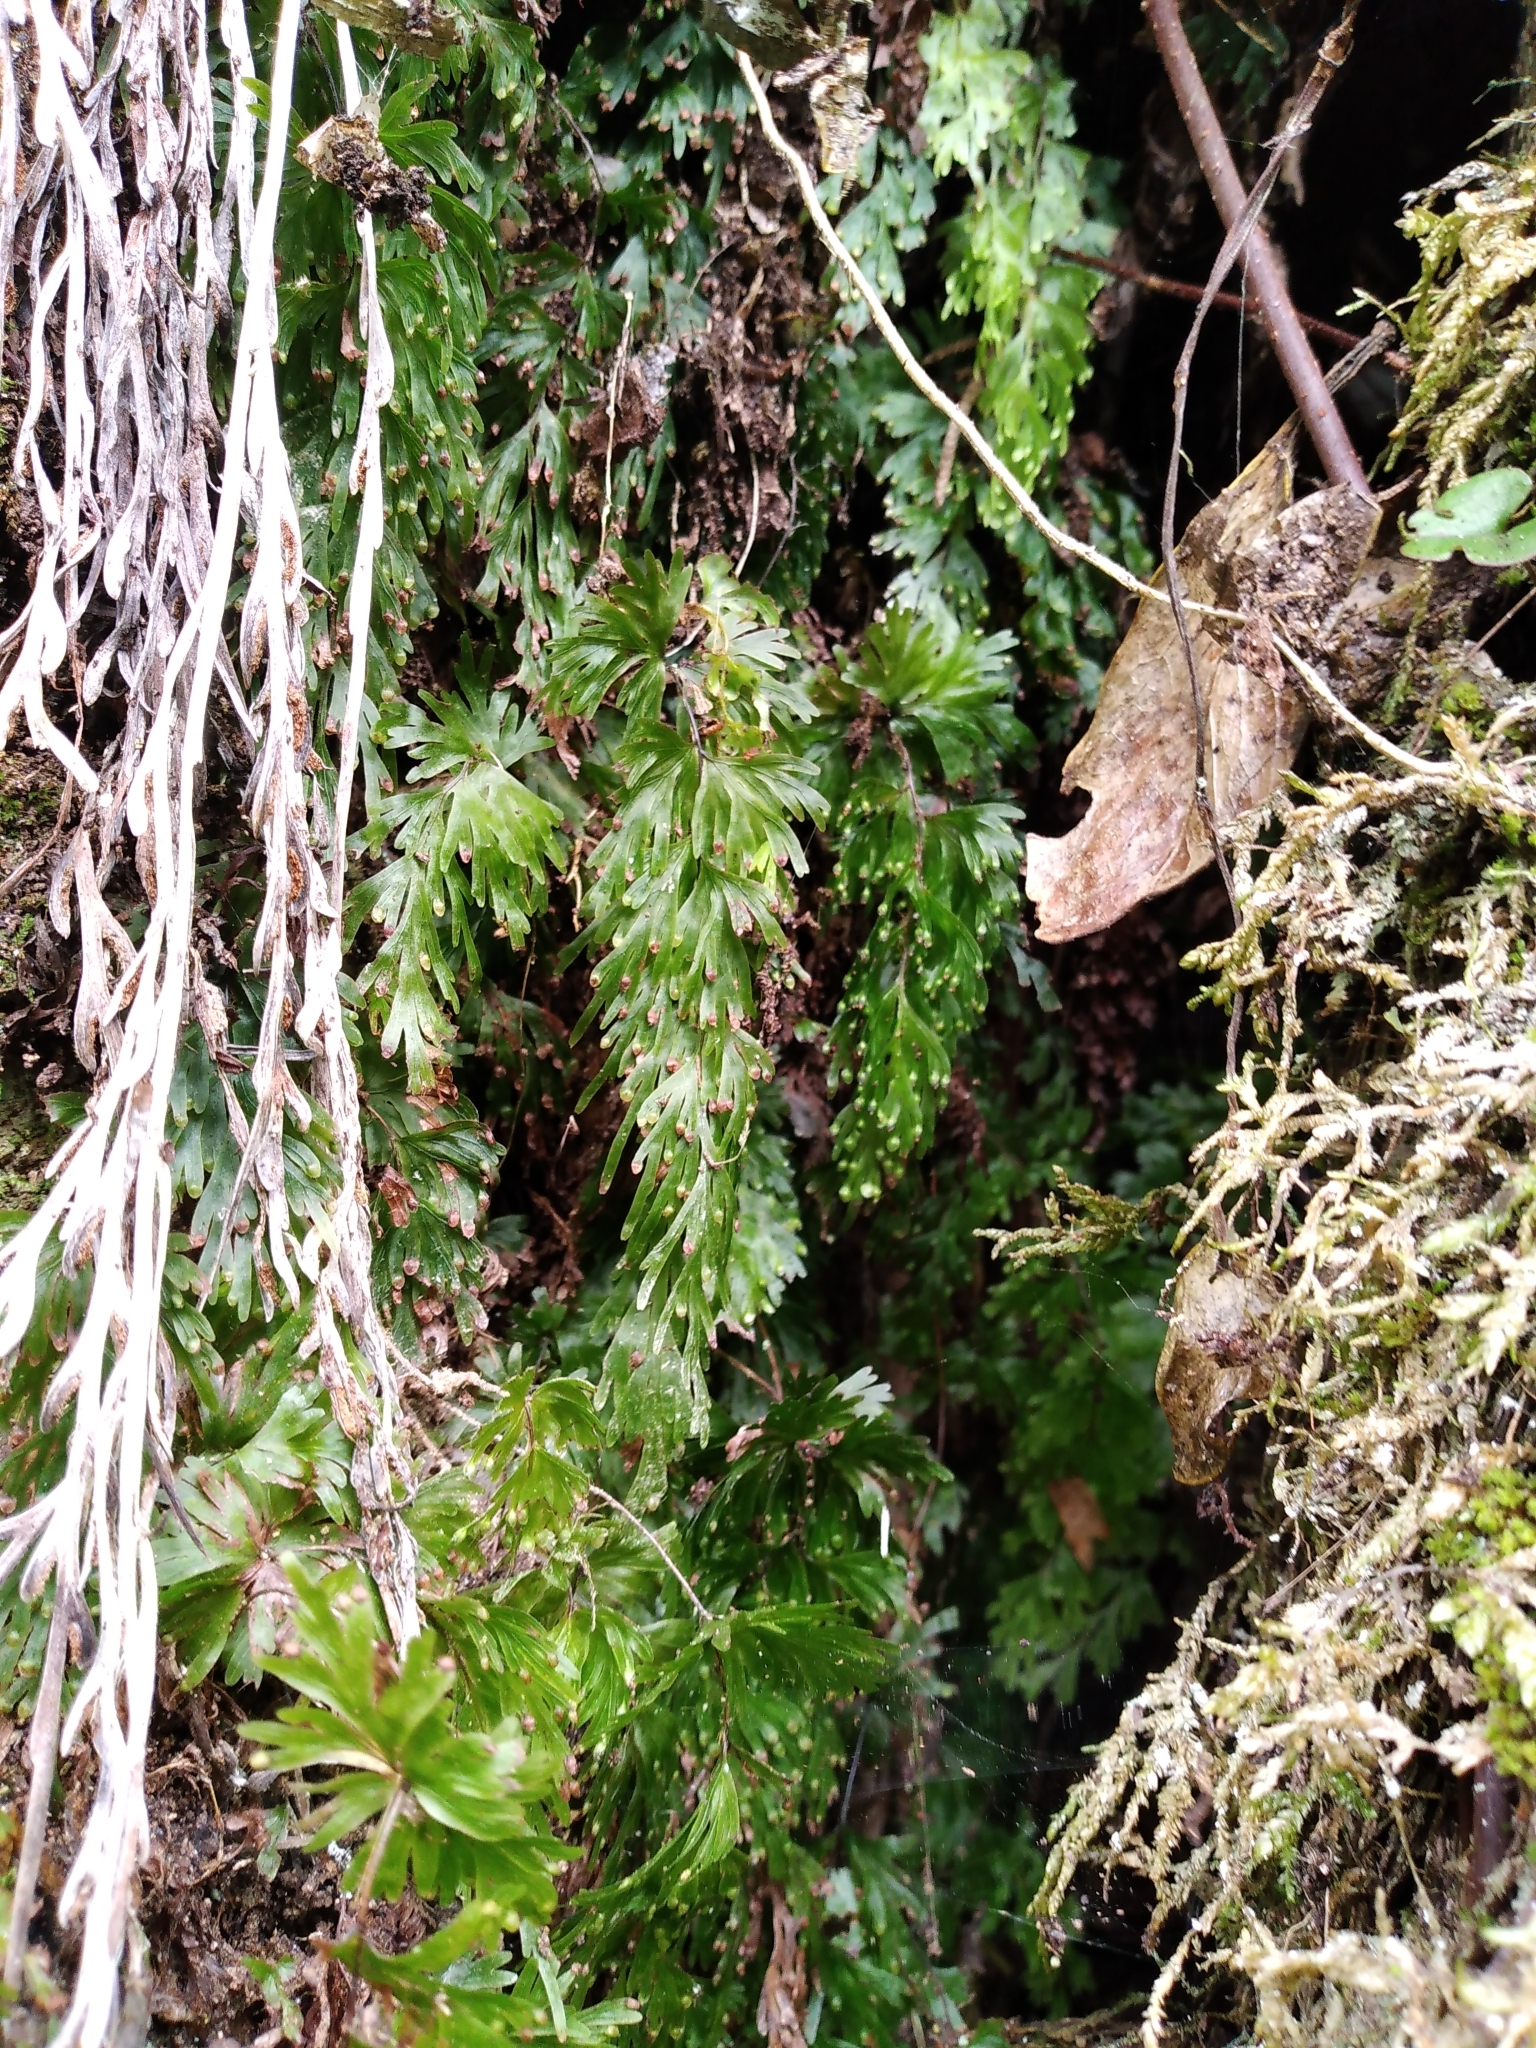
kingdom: Plantae
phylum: Tracheophyta
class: Polypodiopsida
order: Hymenophyllales
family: Hymenophyllaceae
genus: Hymenophyllum
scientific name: Hymenophyllum flabellatum
